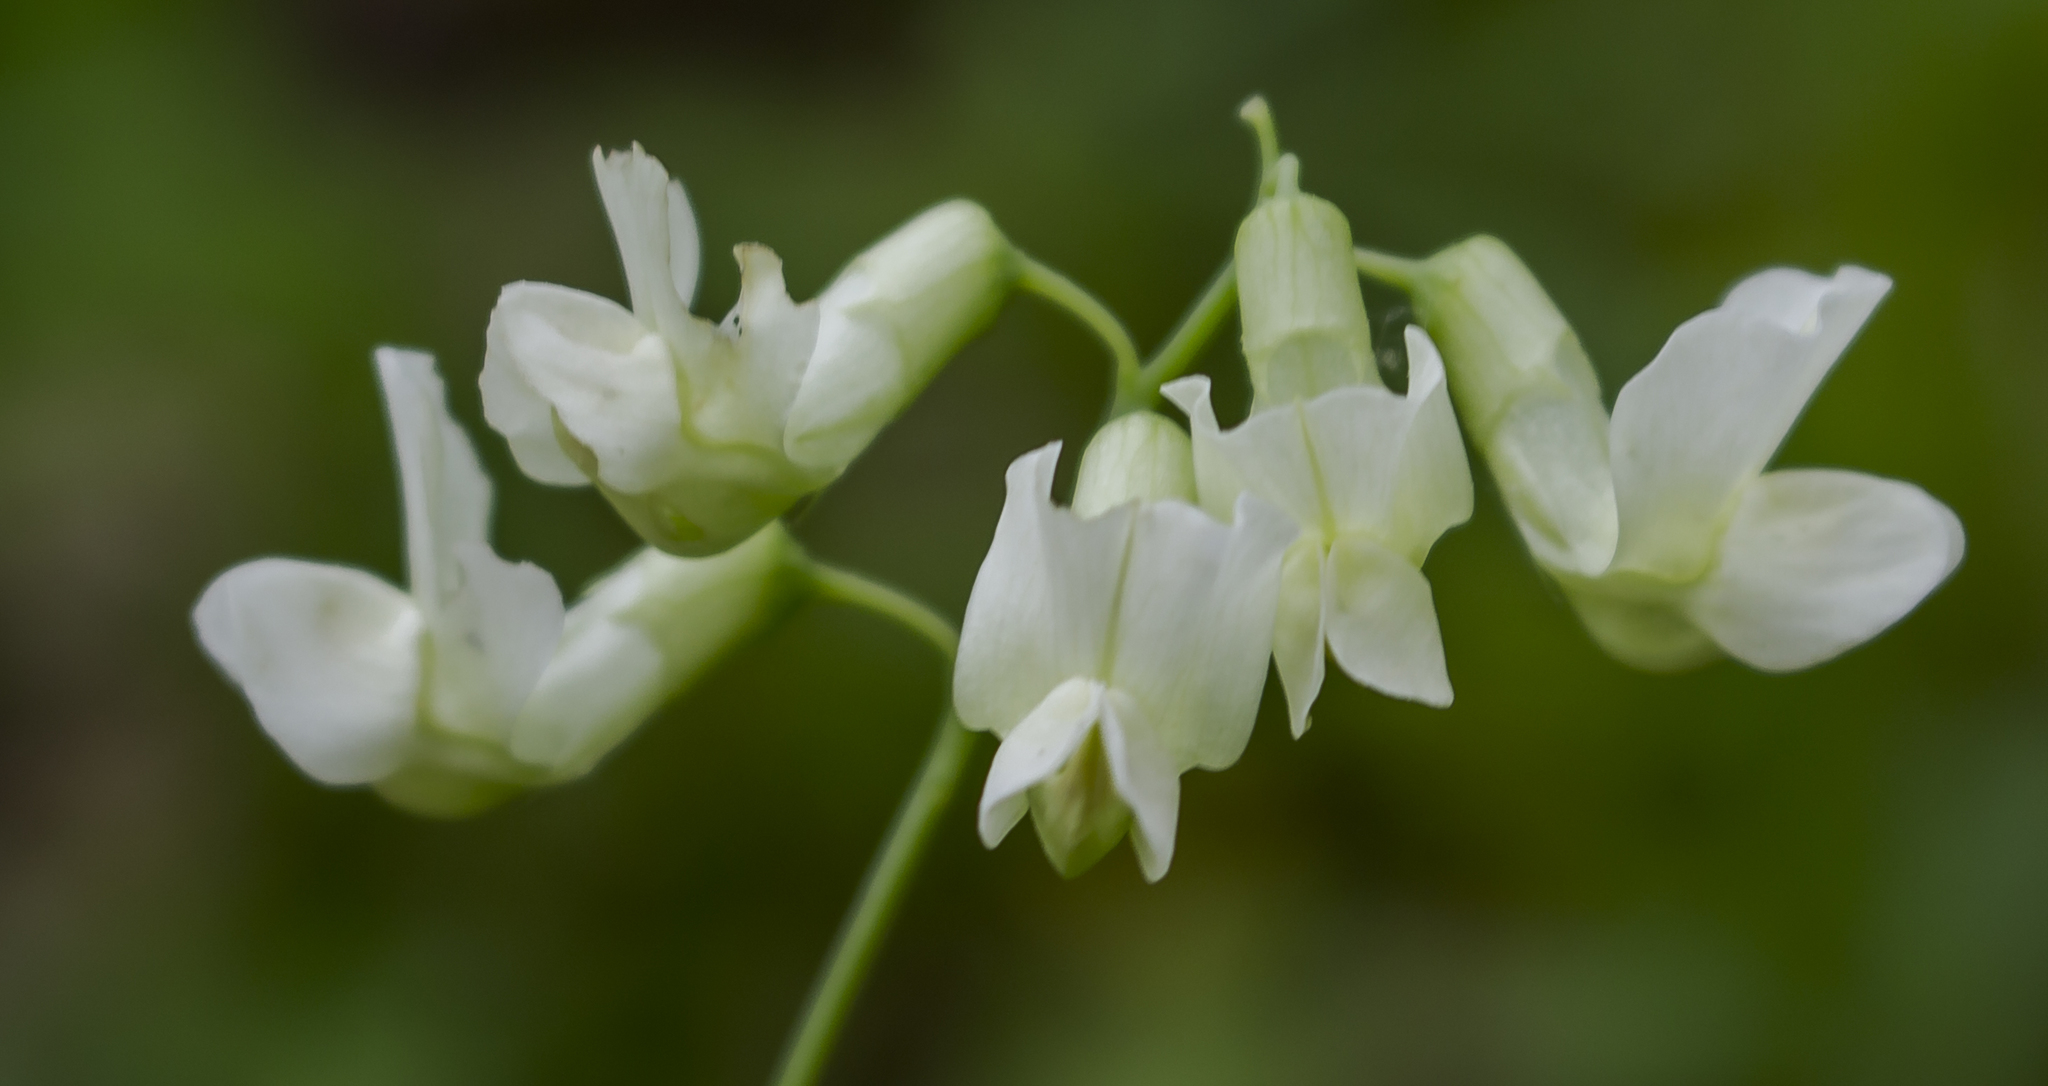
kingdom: Plantae
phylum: Tracheophyta
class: Magnoliopsida
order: Fabales
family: Fabaceae
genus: Lathyrus
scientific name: Lathyrus ochroleucus
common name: Pale vetchling
